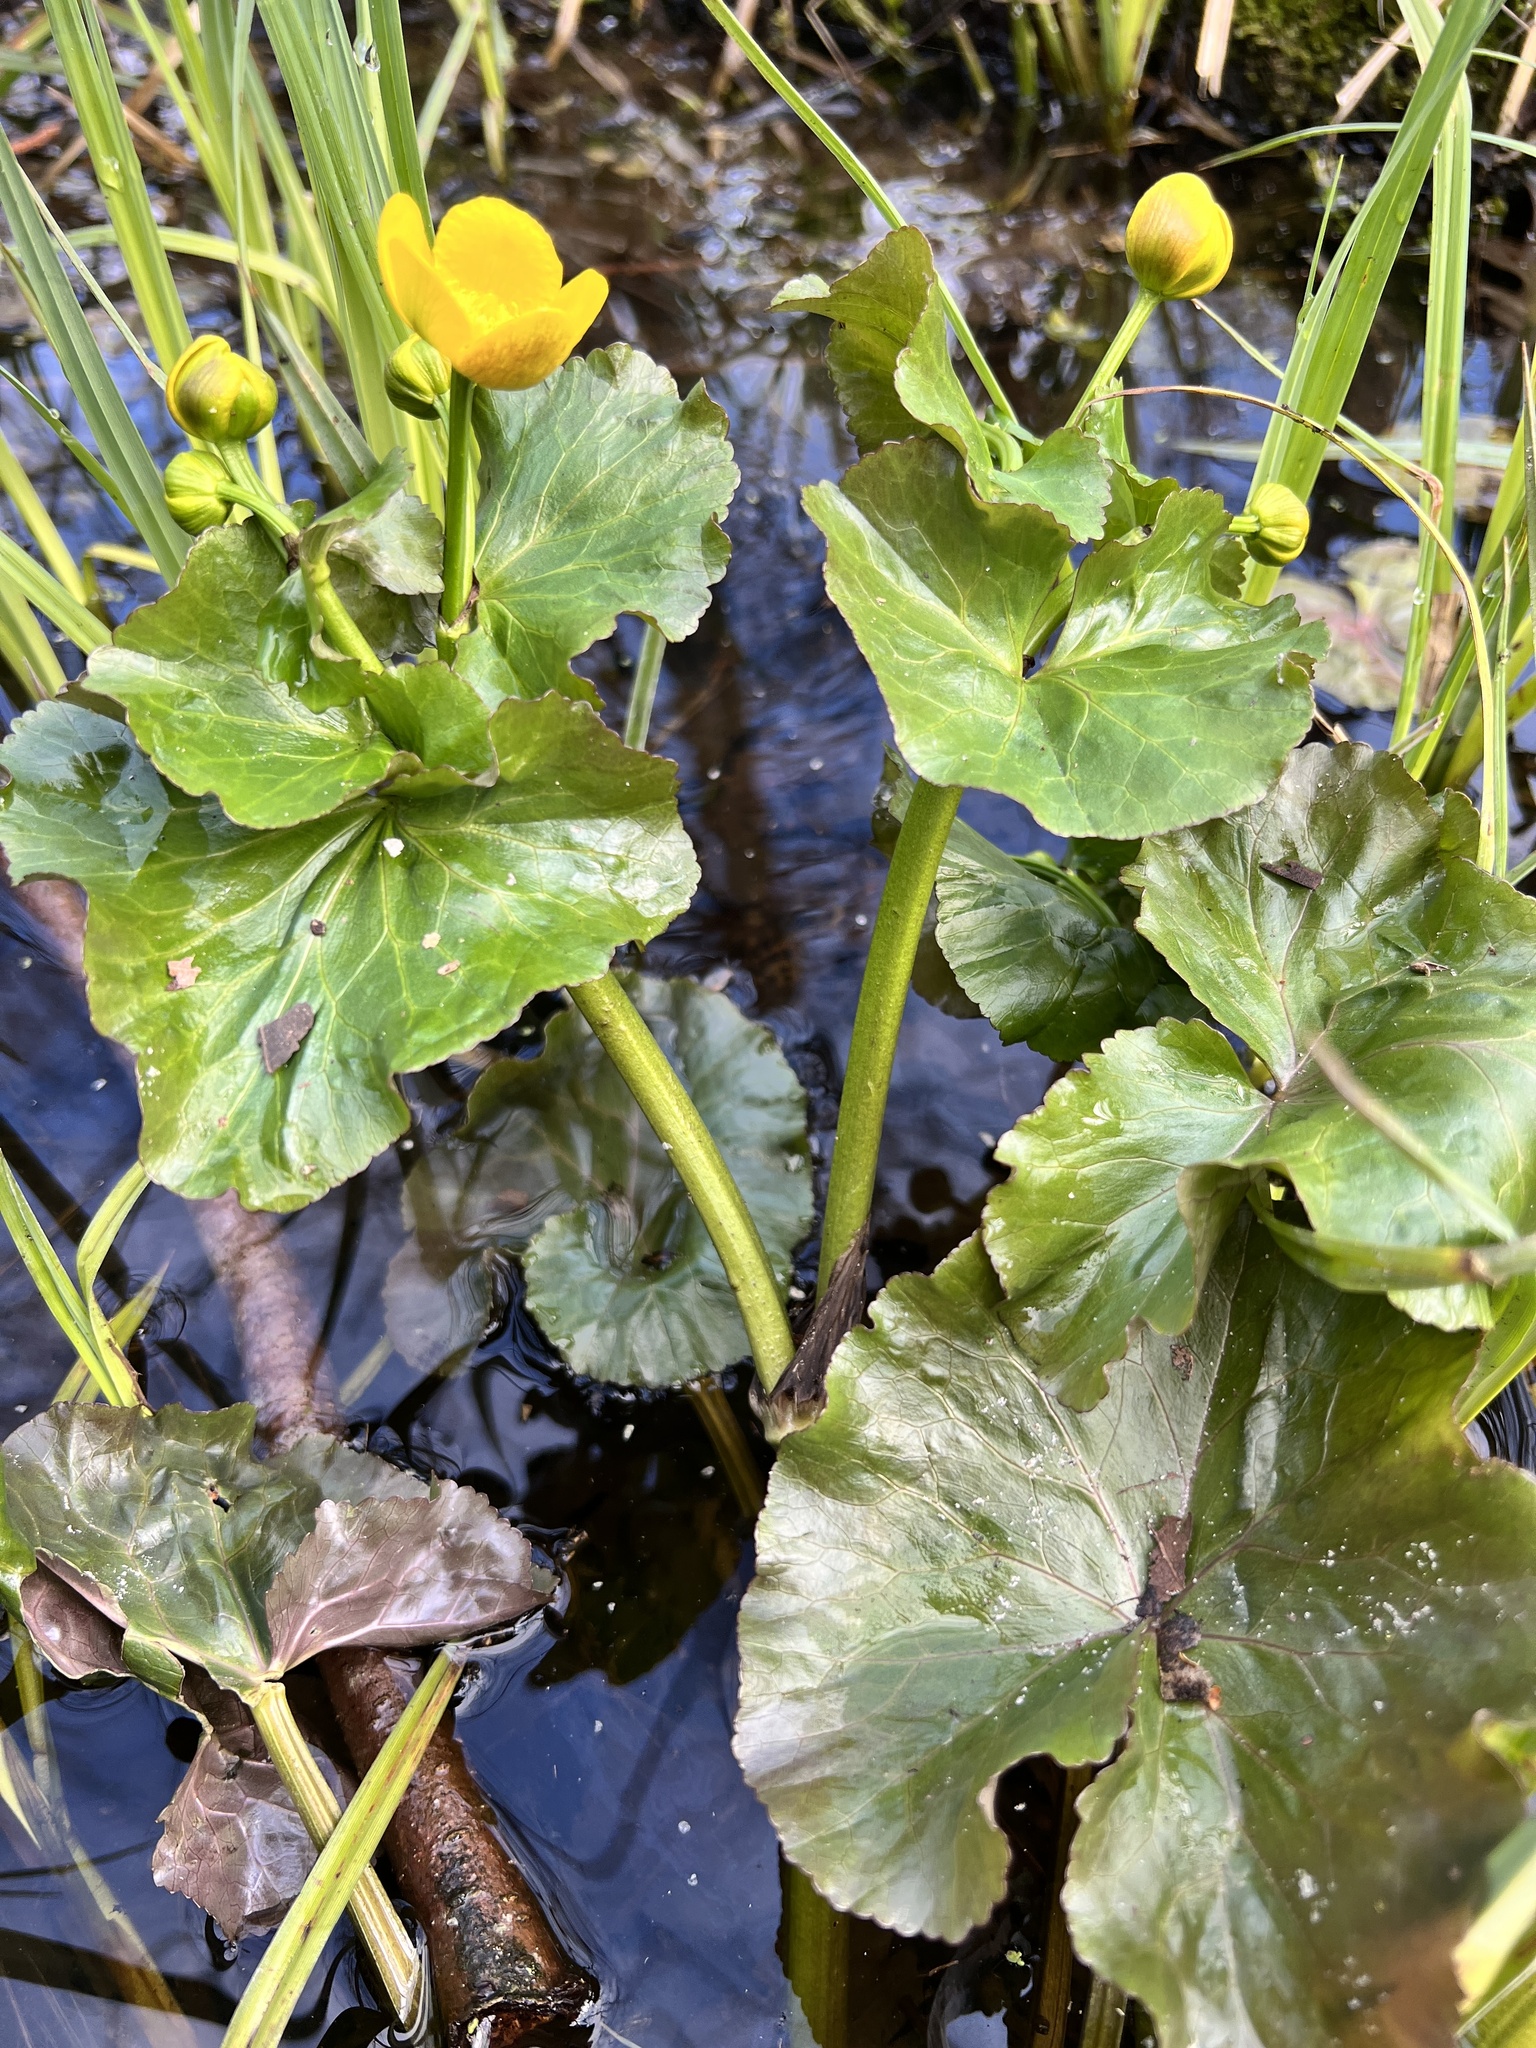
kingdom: Plantae
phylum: Tracheophyta
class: Magnoliopsida
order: Ranunculales
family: Ranunculaceae
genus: Caltha
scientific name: Caltha palustris
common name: Marsh marigold
